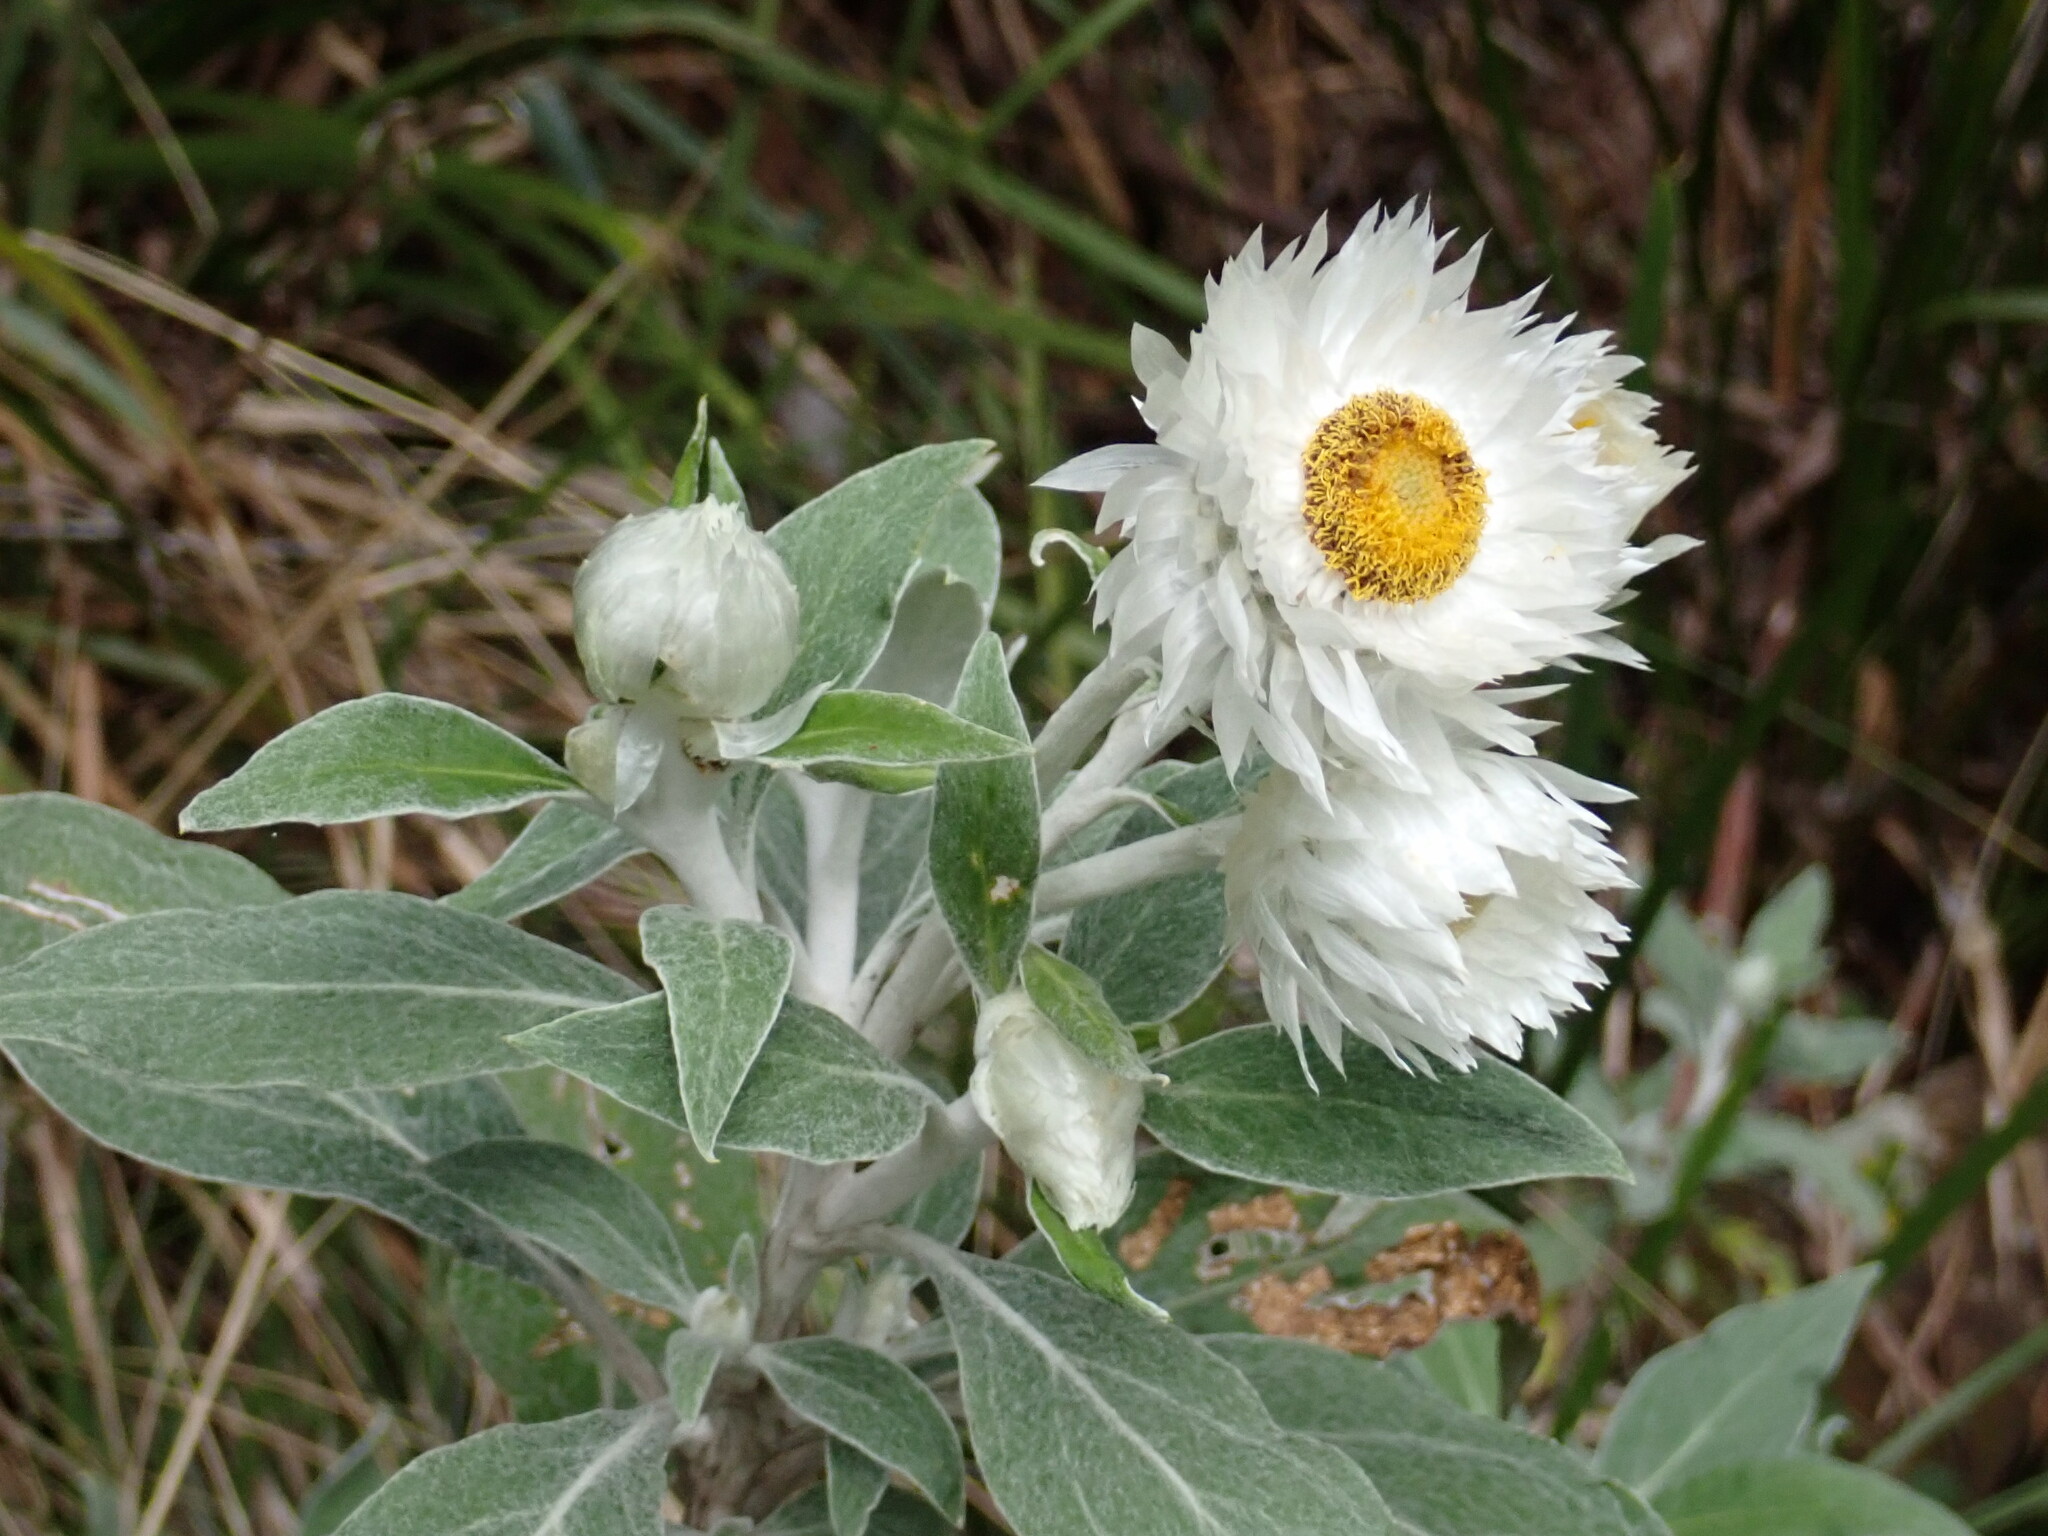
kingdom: Plantae
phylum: Tracheophyta
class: Magnoliopsida
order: Asterales
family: Asteraceae
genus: Leucozoma
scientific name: Leucozoma elatum
